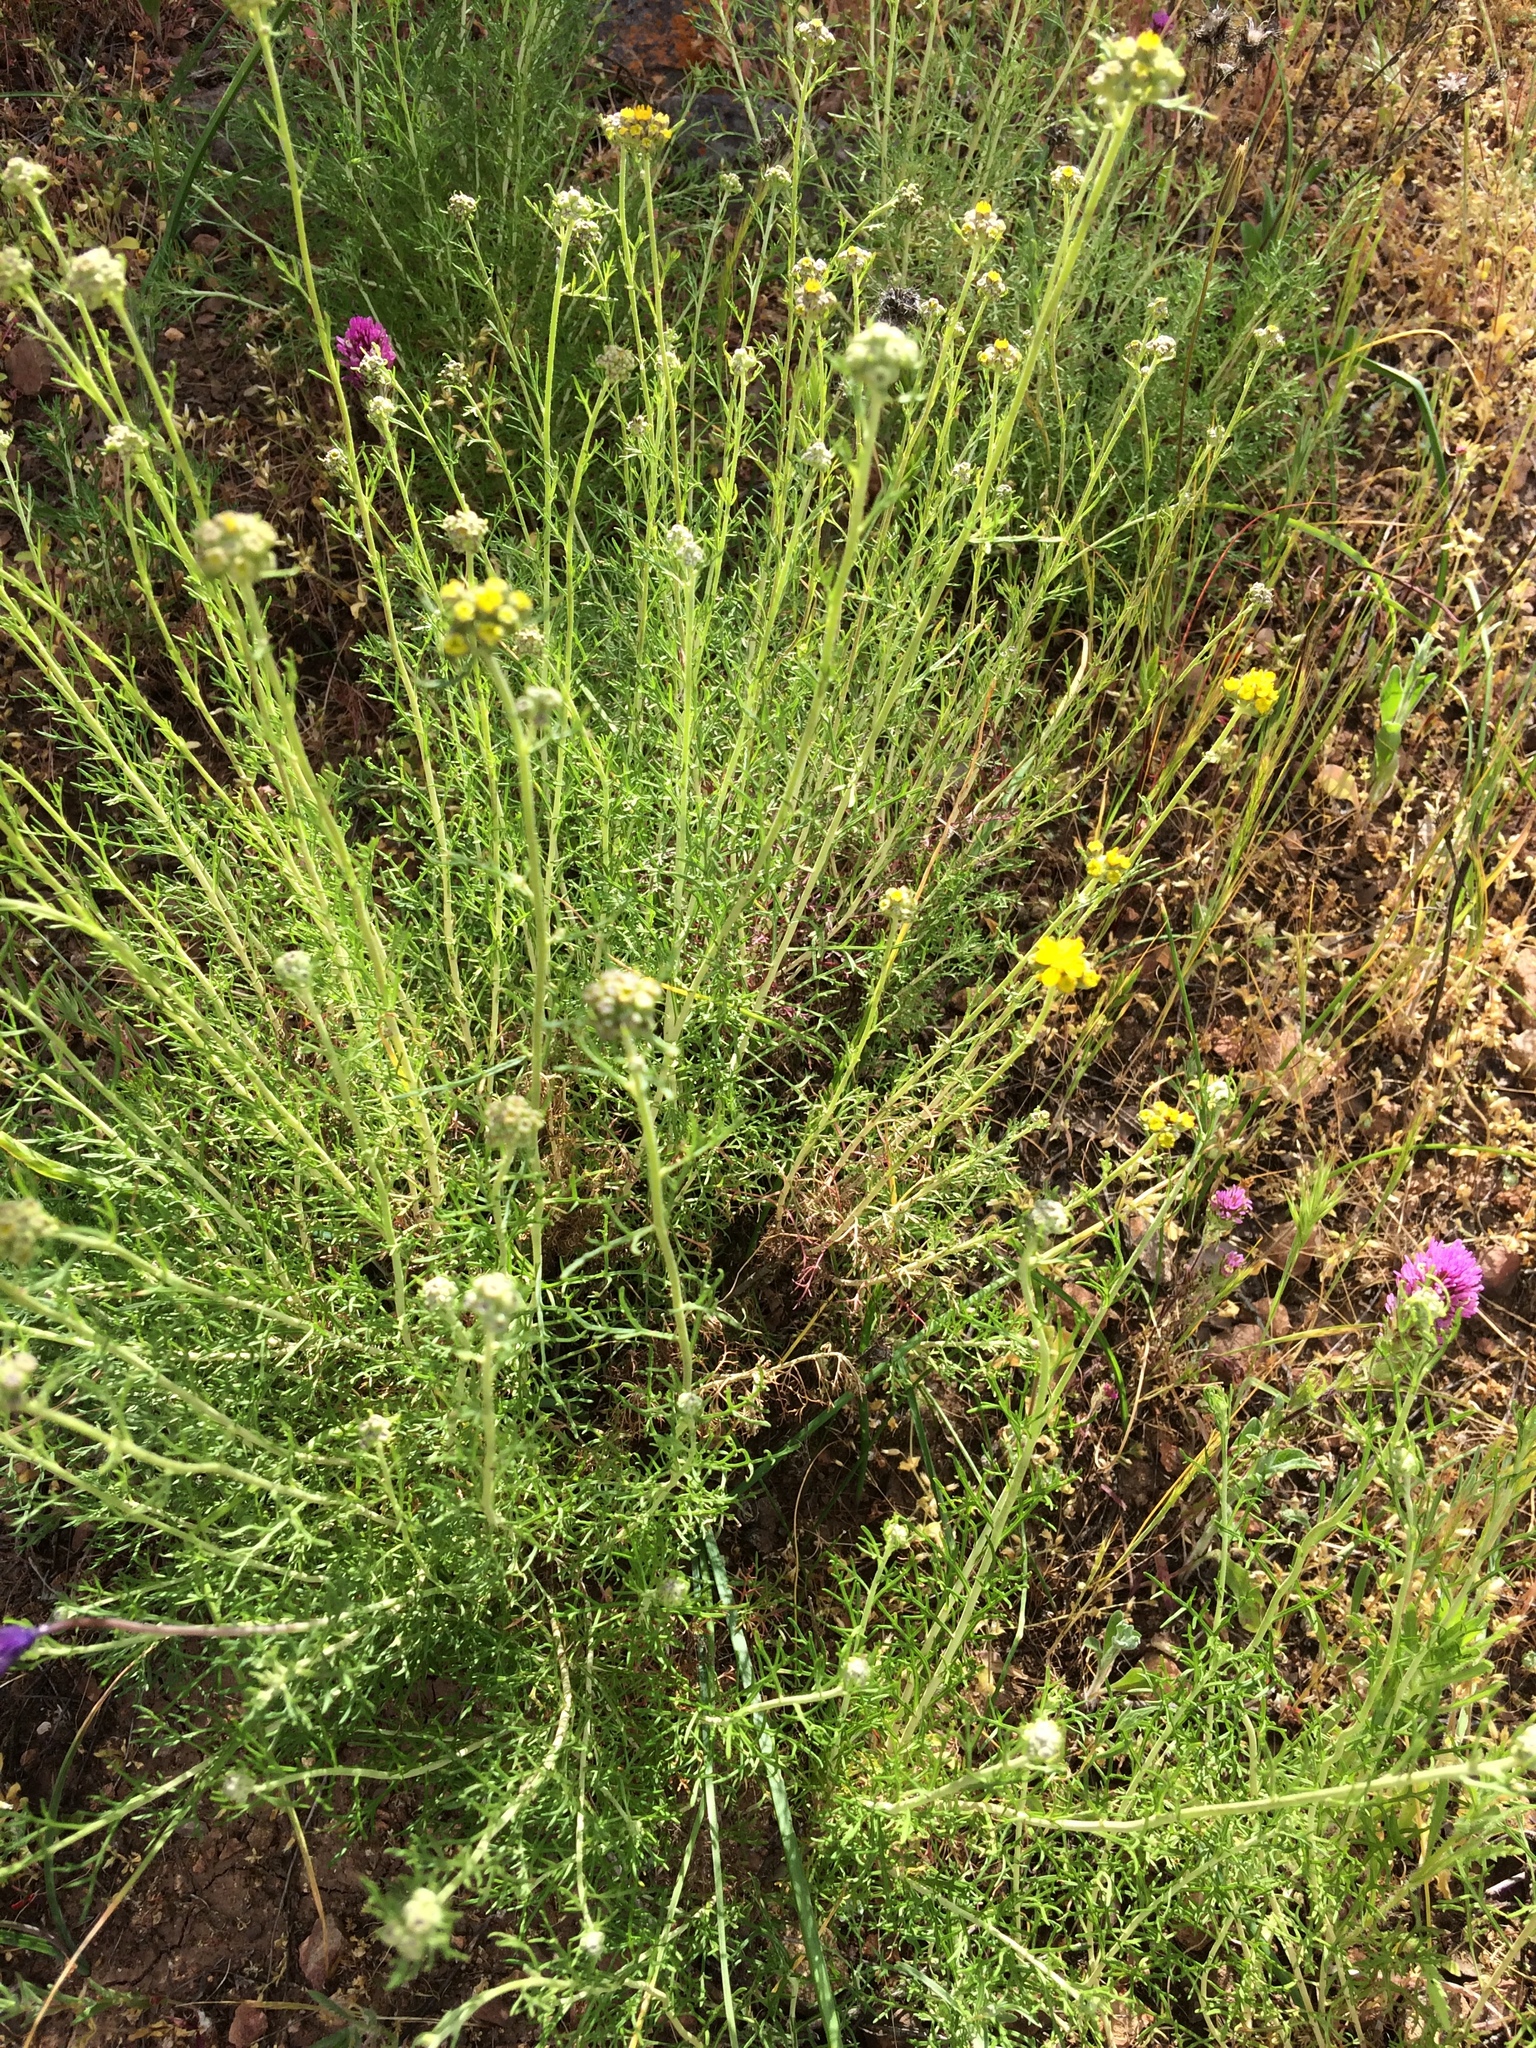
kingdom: Plantae
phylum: Tracheophyta
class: Magnoliopsida
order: Asterales
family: Asteraceae
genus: Eriophyllum
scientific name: Eriophyllum confertiflorum
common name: Golden-yarrow
